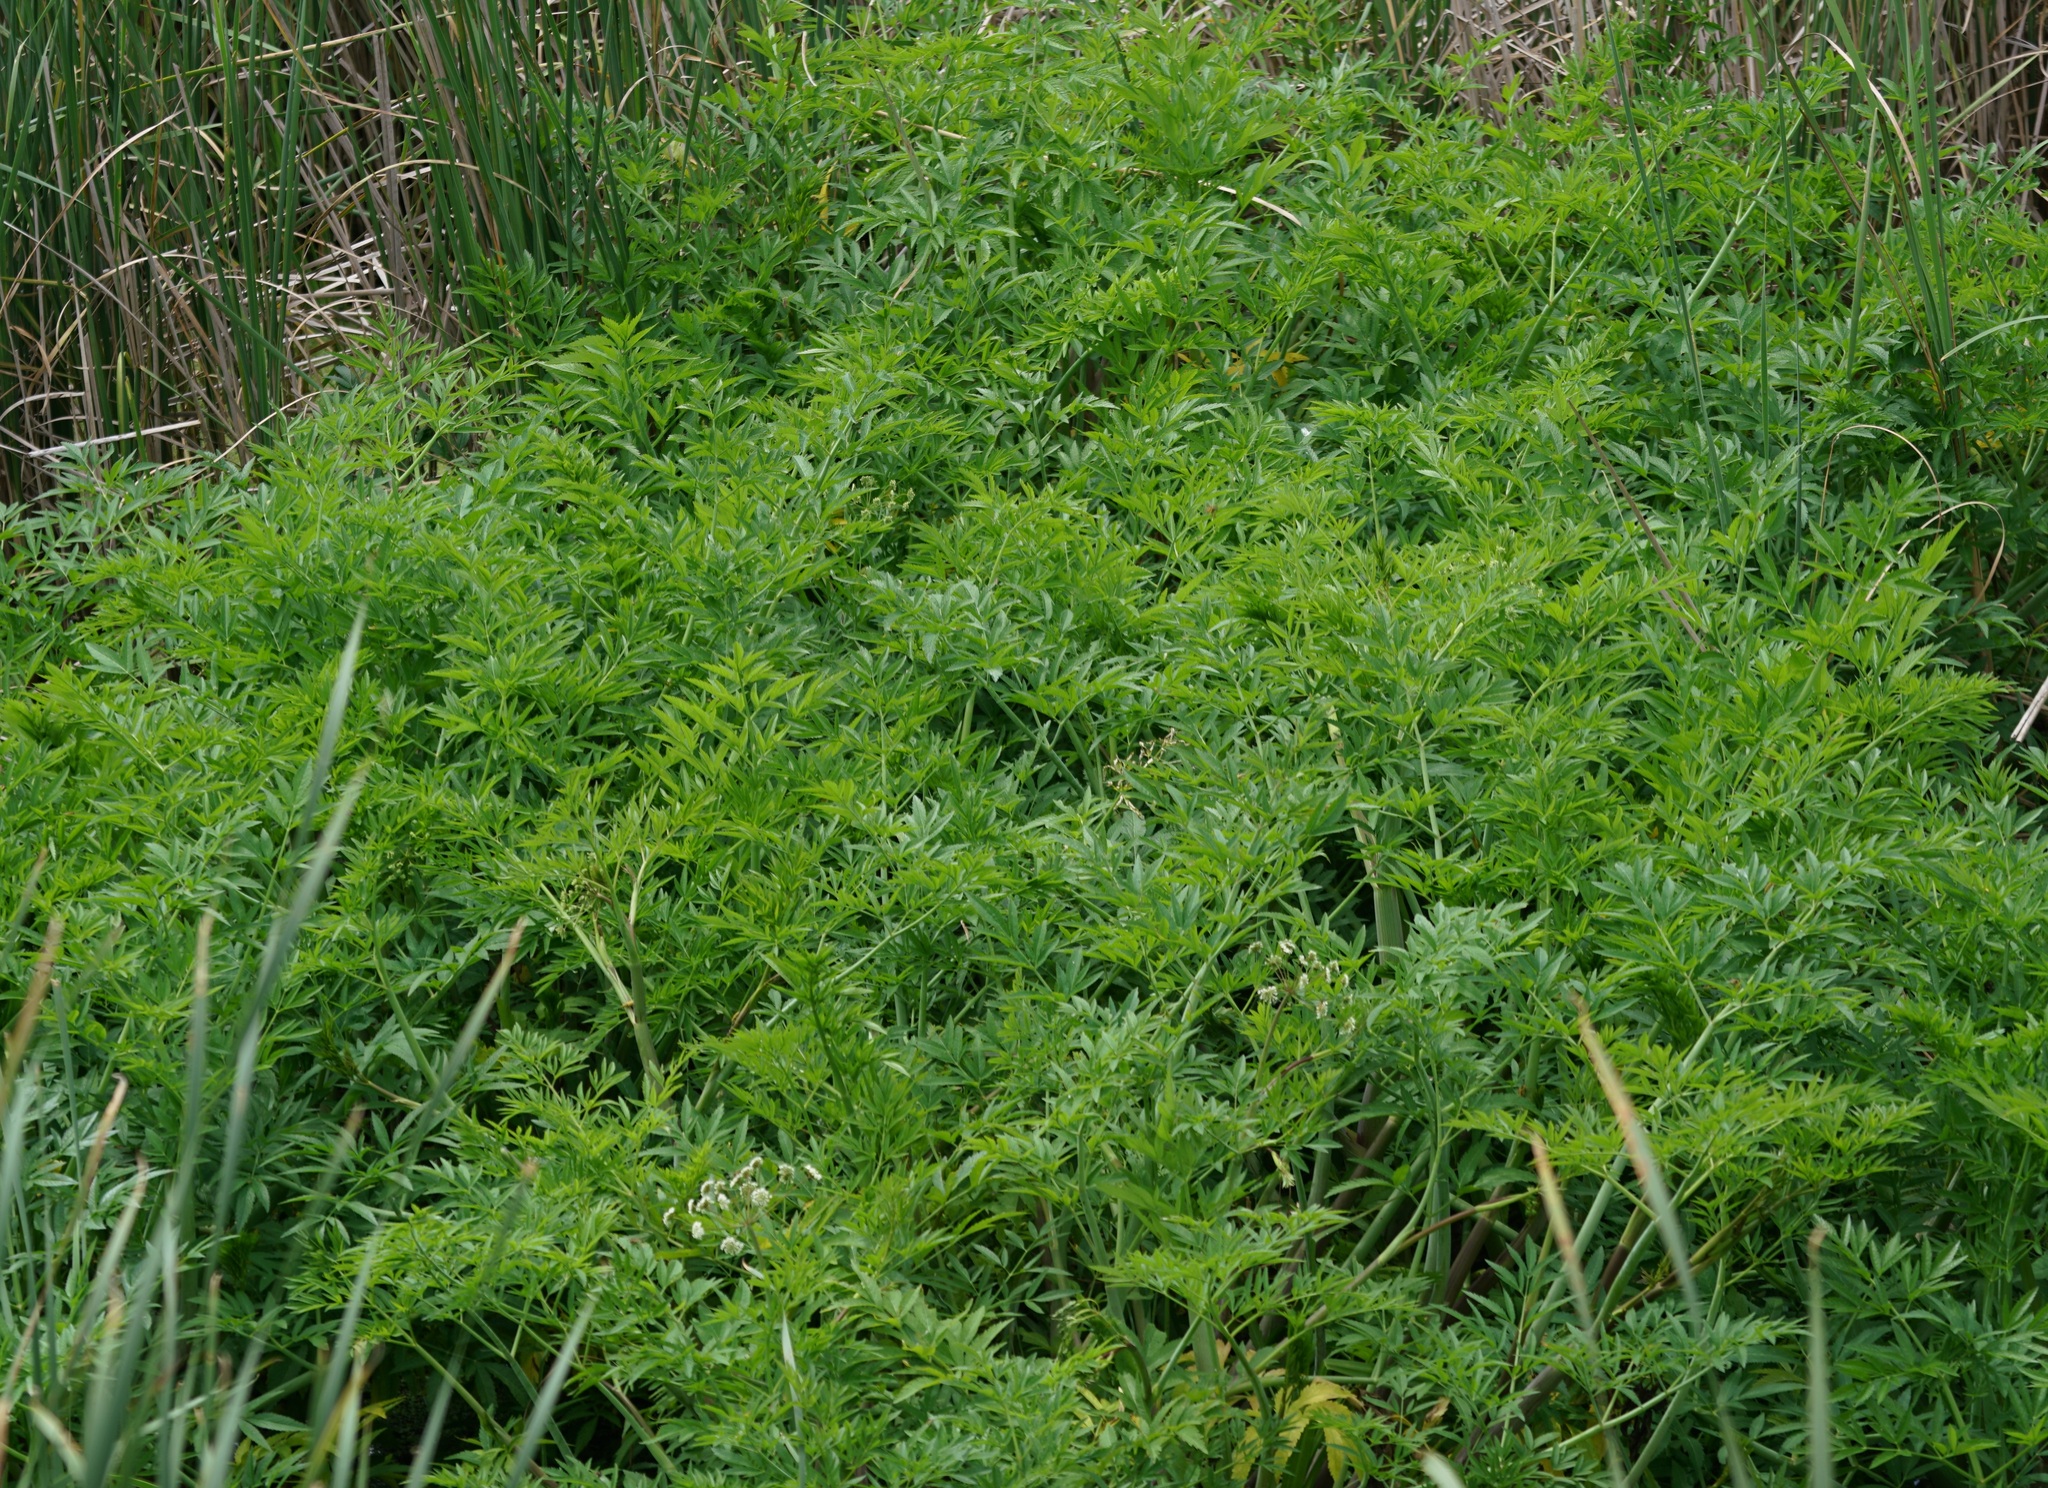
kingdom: Plantae
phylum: Tracheophyta
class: Magnoliopsida
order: Apiales
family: Apiaceae
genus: Cicuta
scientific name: Cicuta virosa
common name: Cowbane
